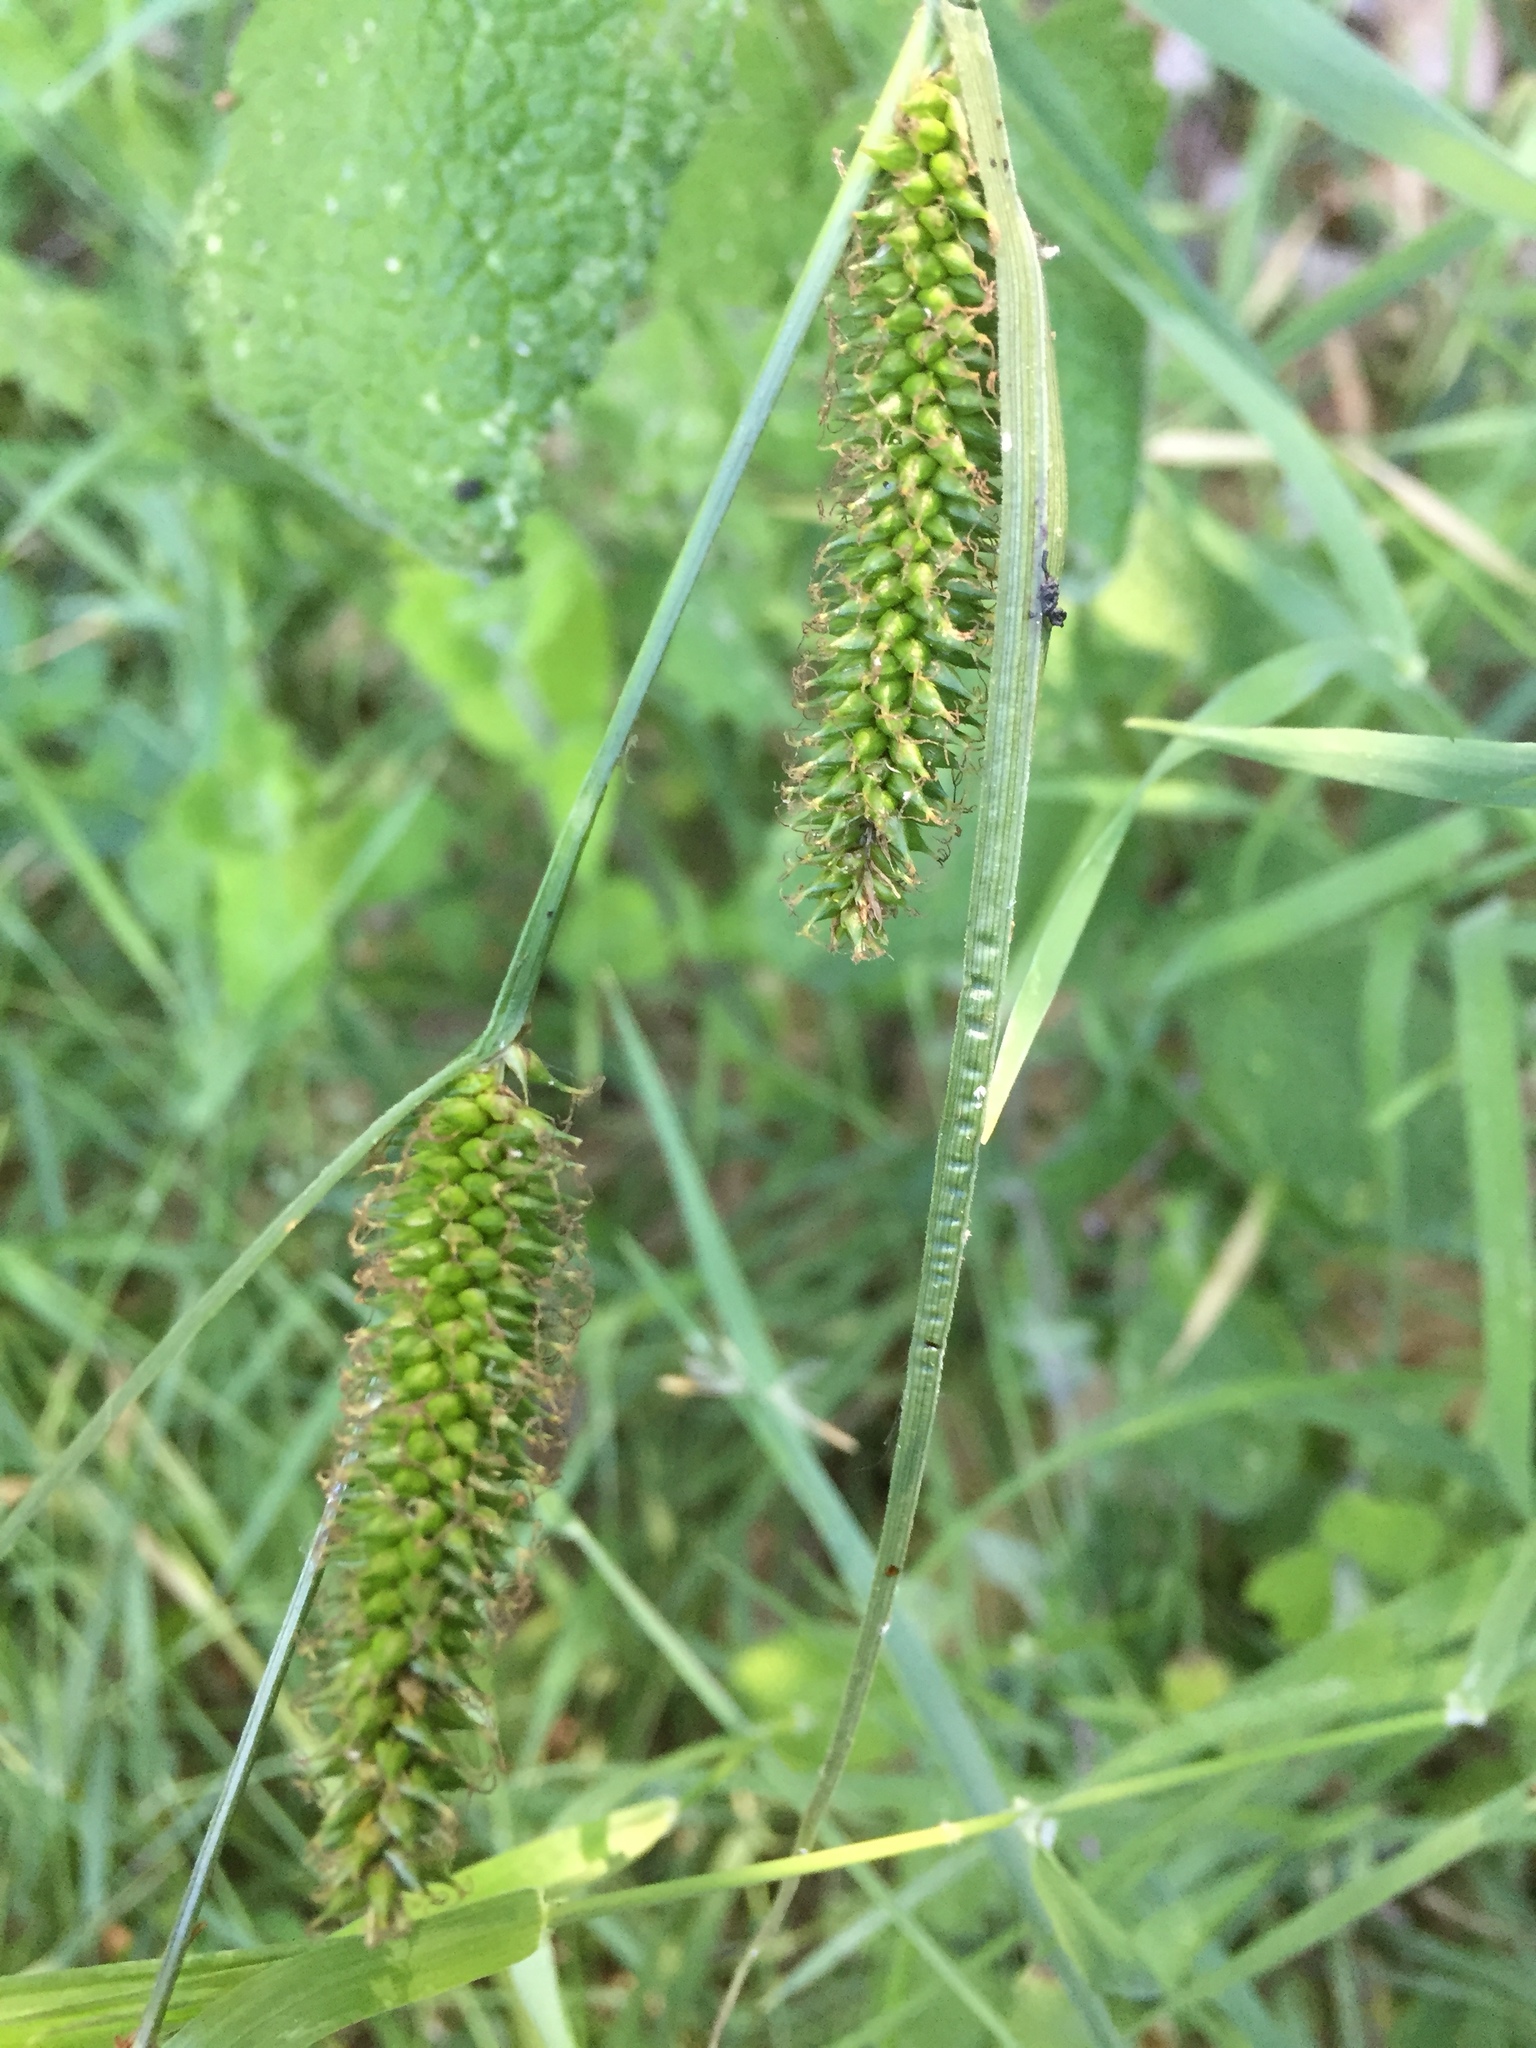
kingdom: Plantae
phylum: Tracheophyta
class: Liliopsida
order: Poales
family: Cyperaceae
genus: Carex
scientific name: Carex laevigata
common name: Smooth-stalked sedge
